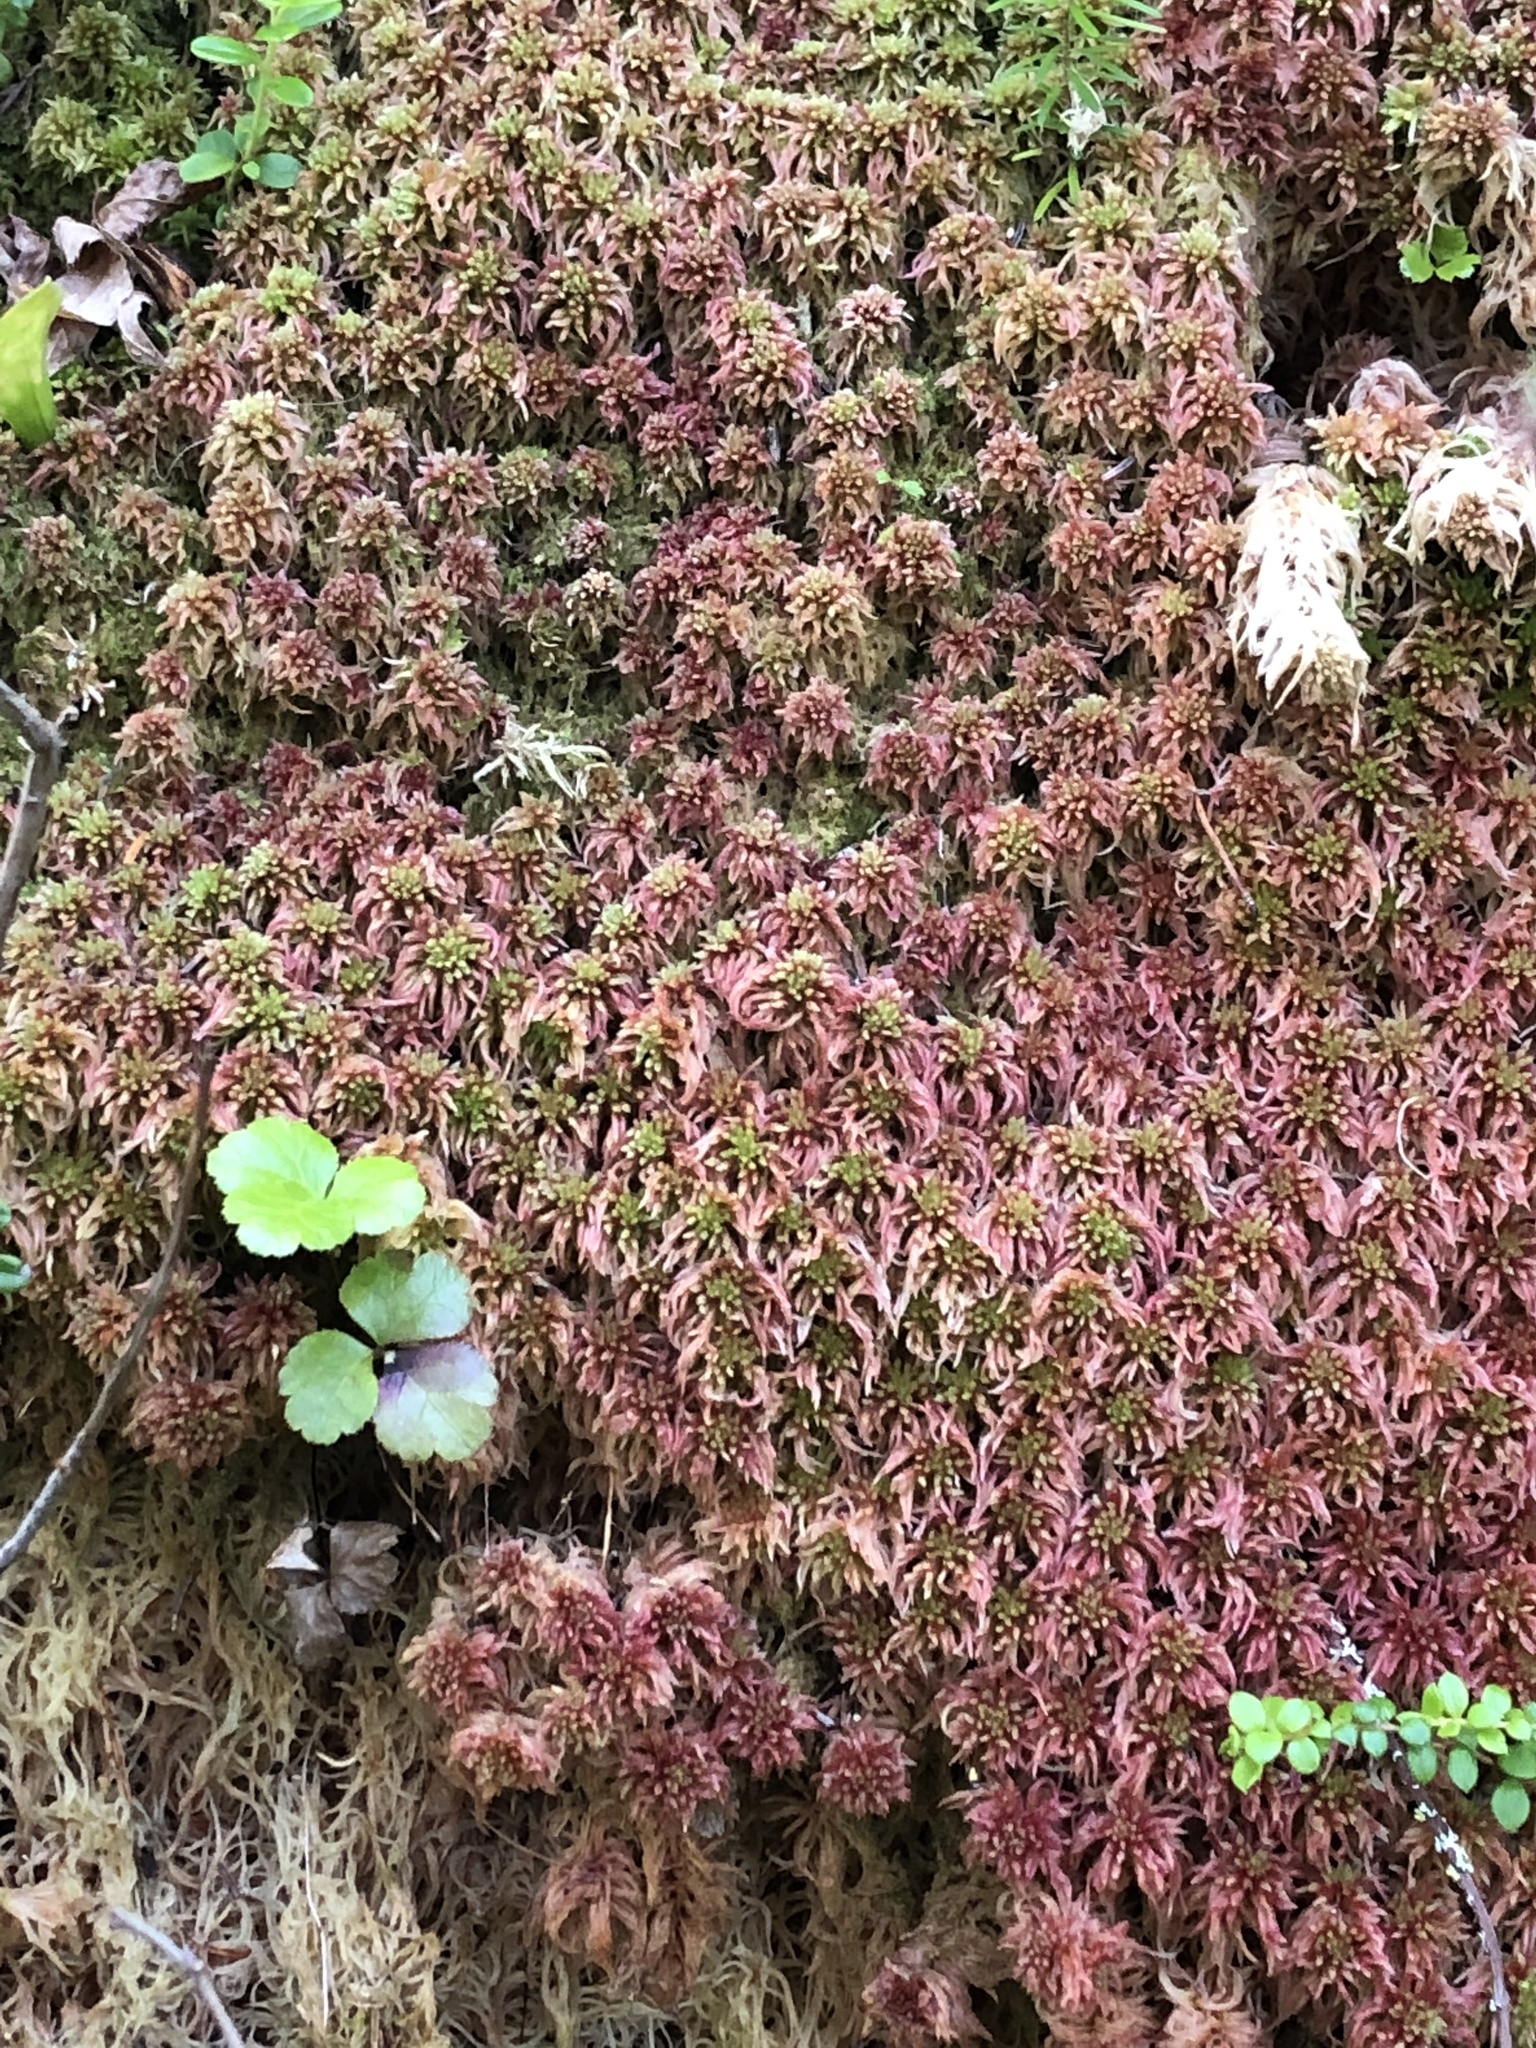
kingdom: Plantae
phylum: Bryophyta
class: Sphagnopsida
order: Sphagnales
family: Sphagnaceae
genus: Sphagnum
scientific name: Sphagnum russowii
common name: Russow's peat moss
